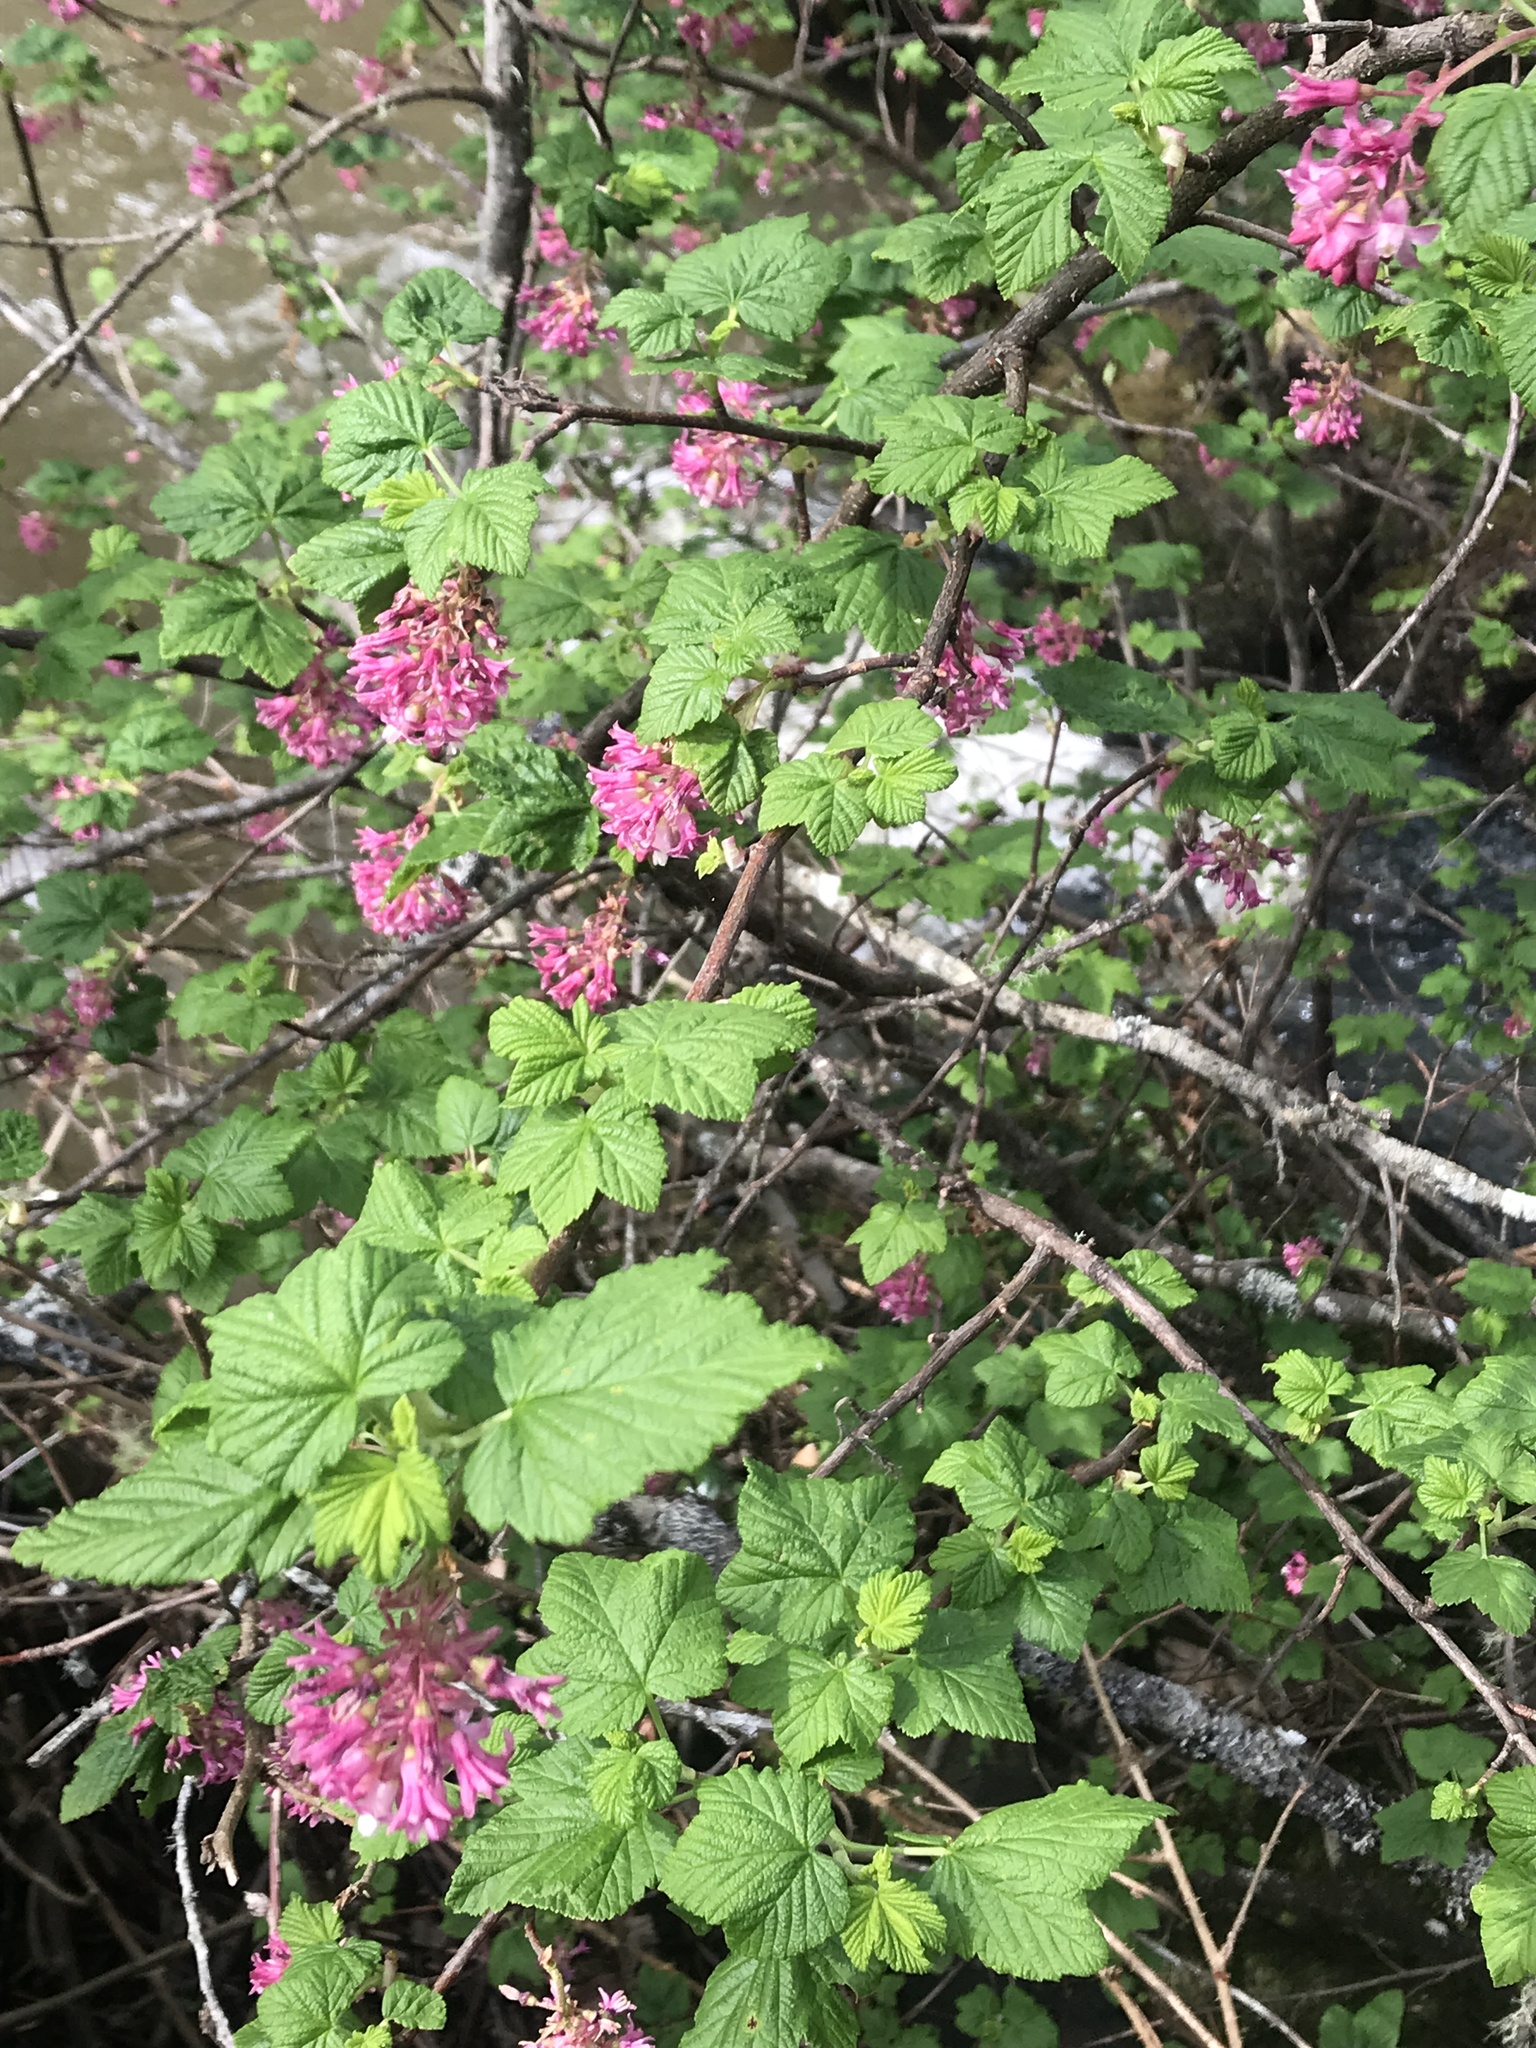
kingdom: Plantae
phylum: Tracheophyta
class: Magnoliopsida
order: Saxifragales
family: Grossulariaceae
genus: Ribes
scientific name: Ribes sanguineum
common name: Flowering currant
